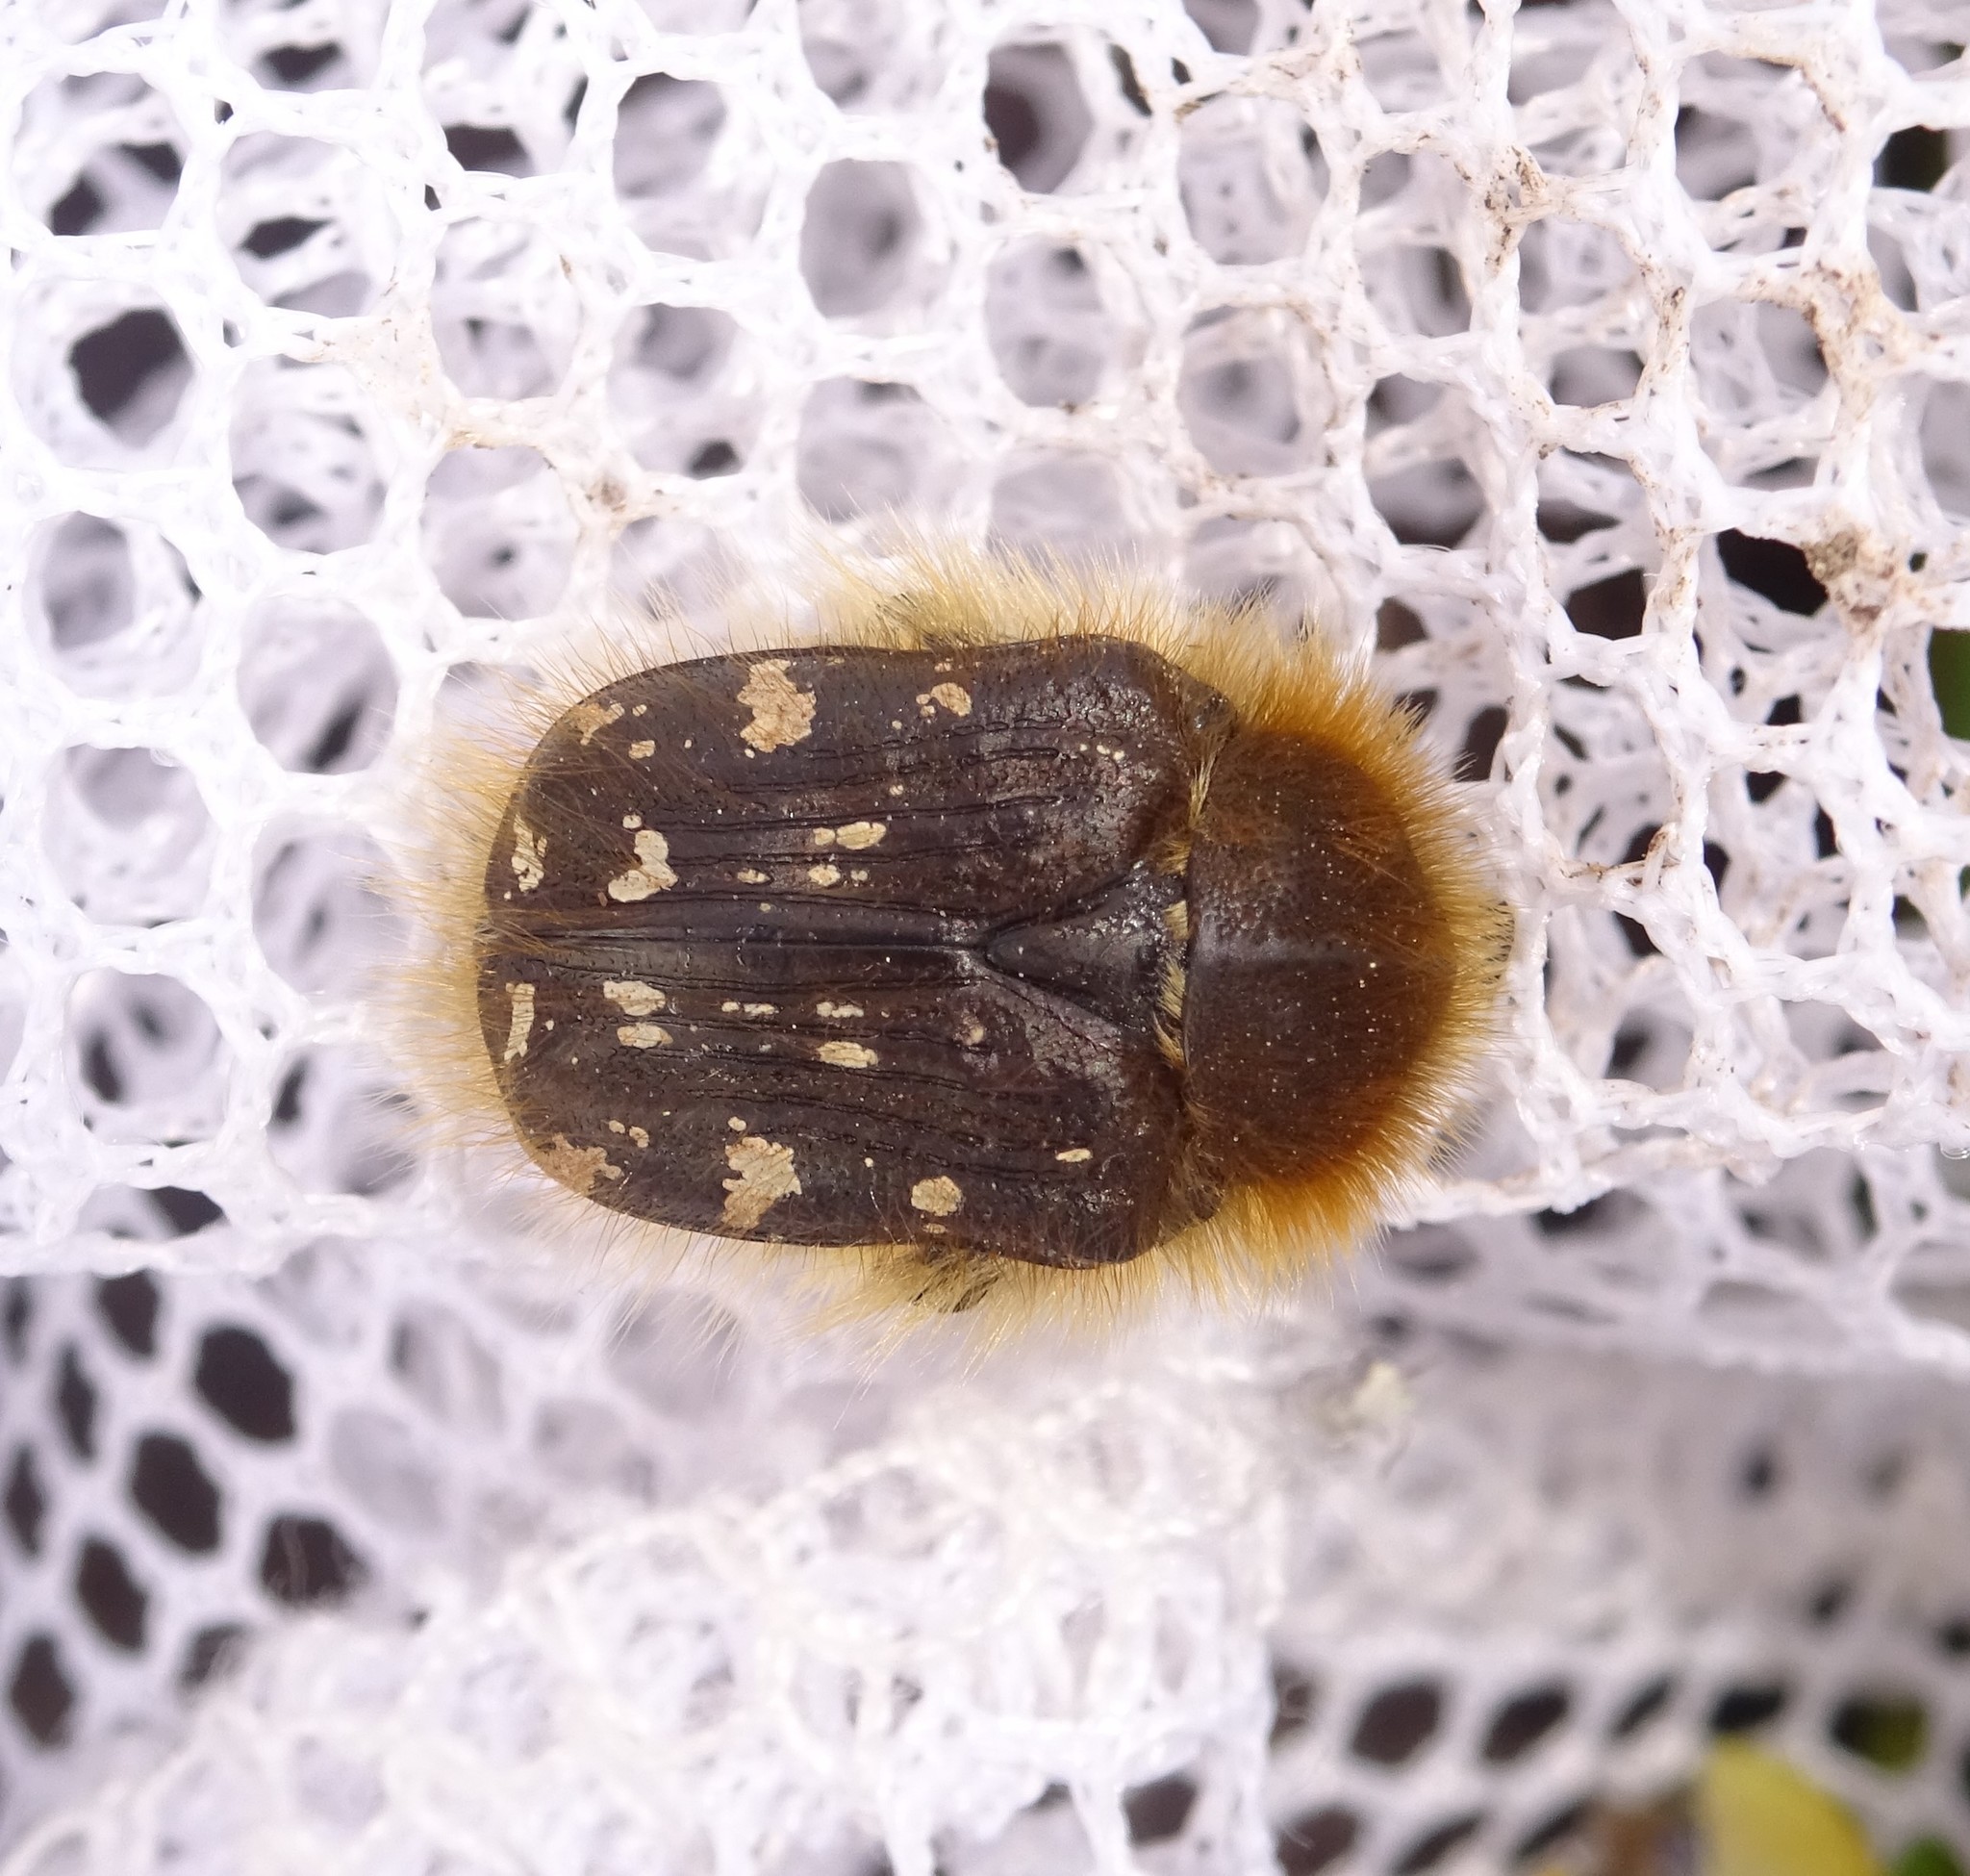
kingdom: Animalia
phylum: Arthropoda
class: Insecta
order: Coleoptera
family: Scarabaeidae
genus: Tropinota
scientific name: Tropinota hirta
